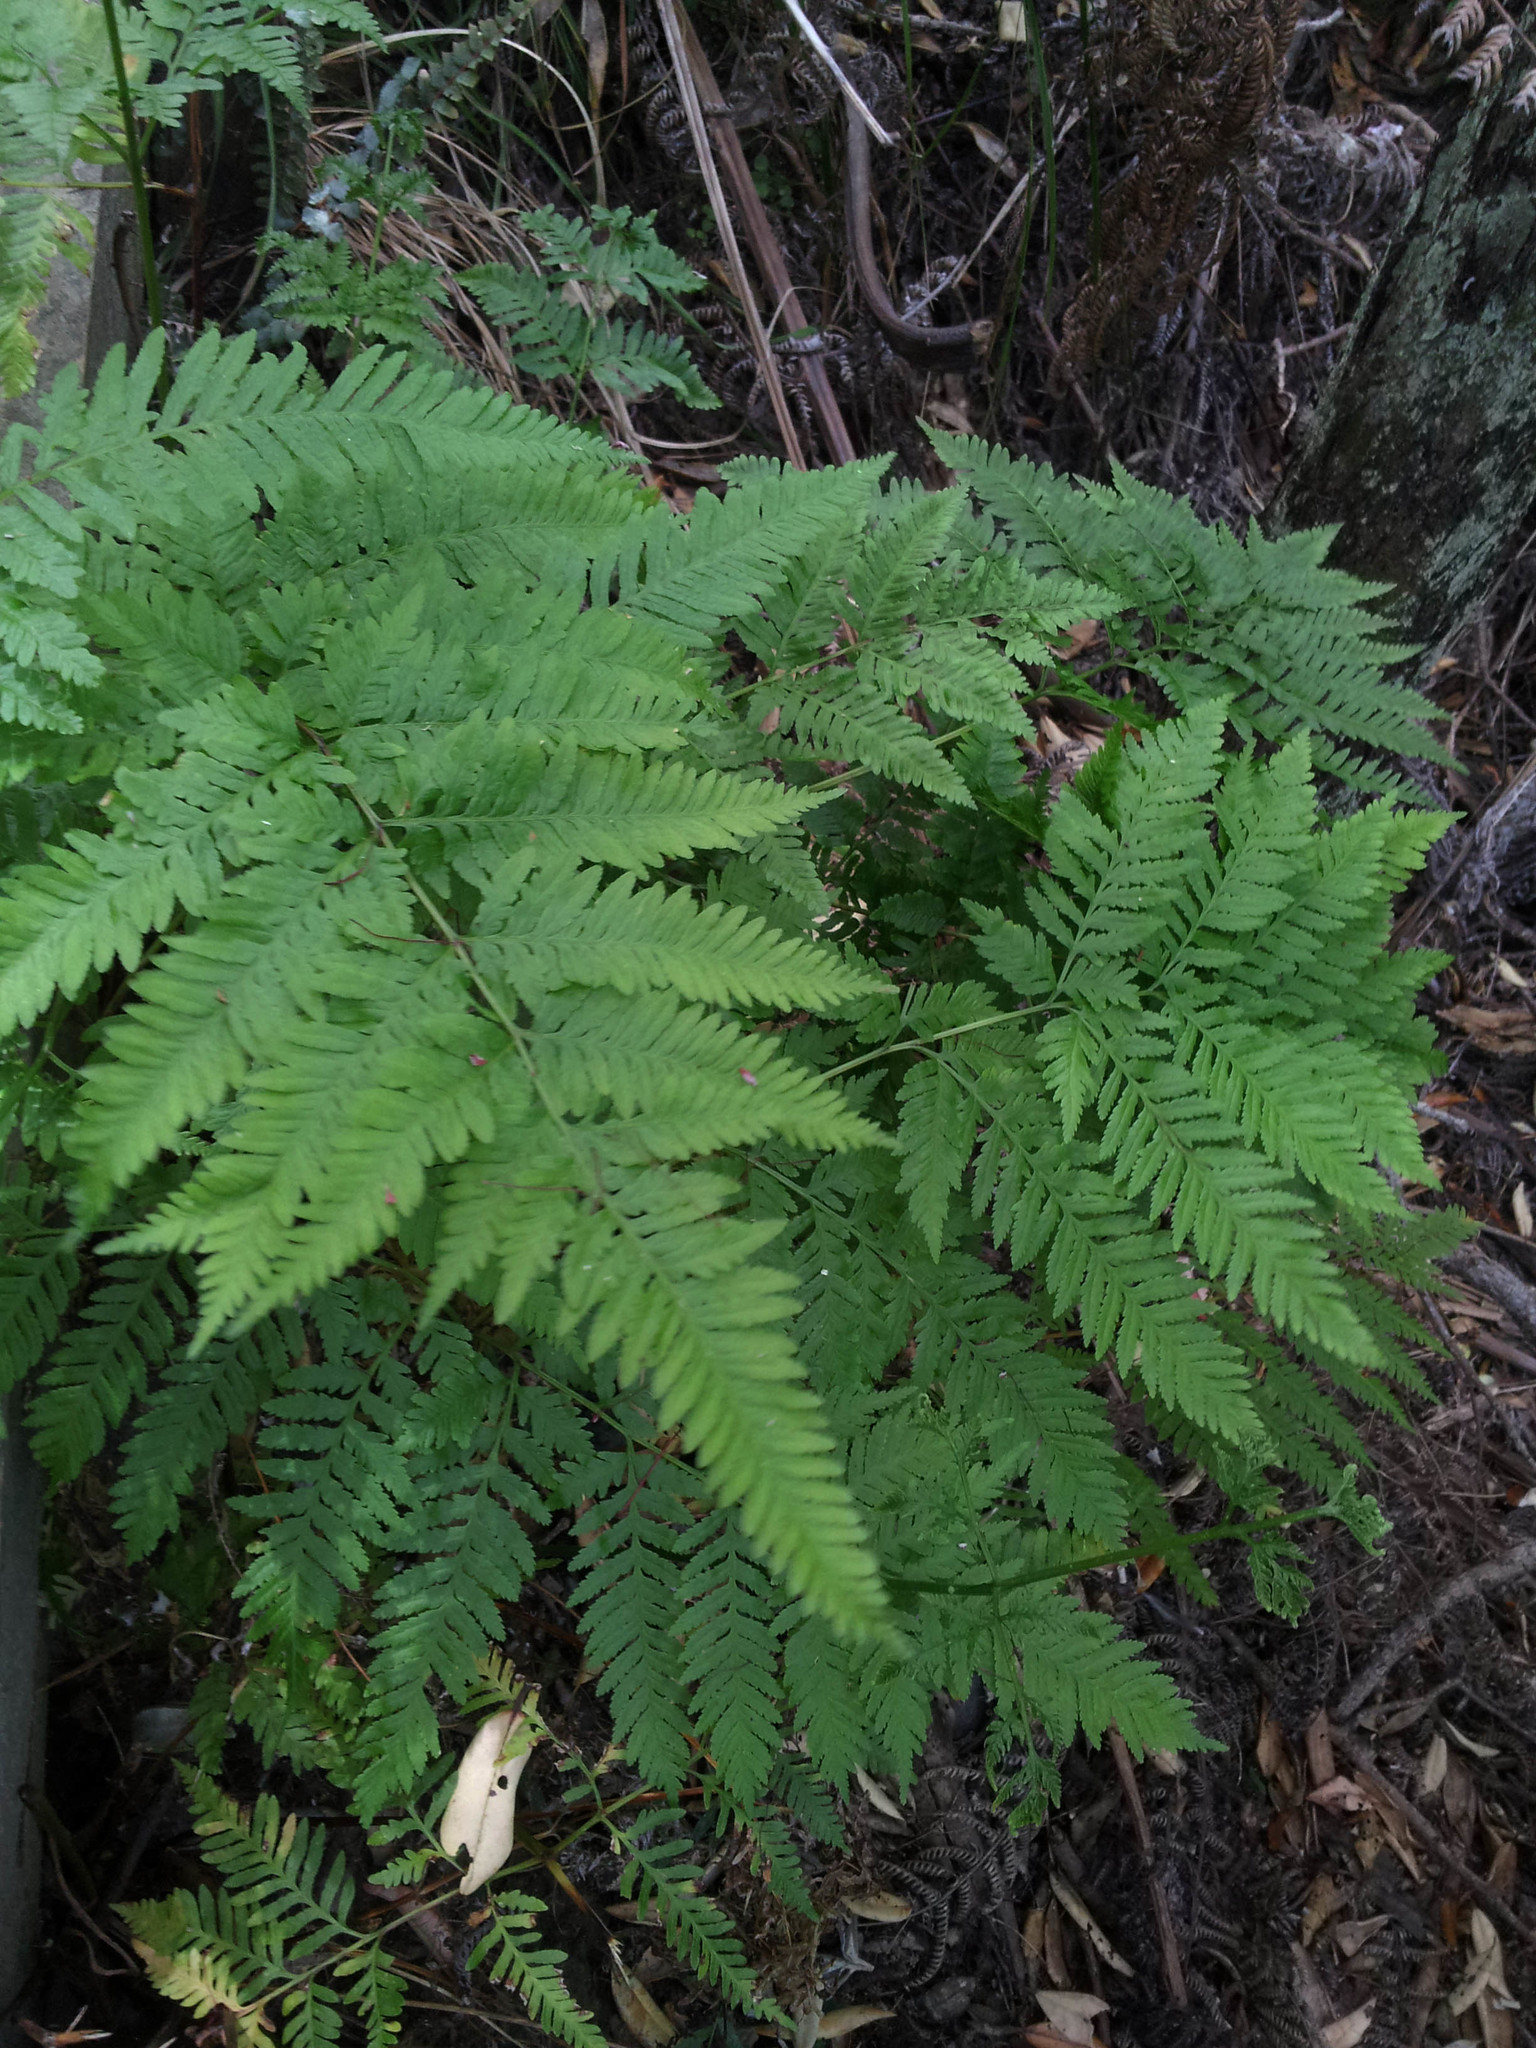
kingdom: Plantae
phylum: Tracheophyta
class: Polypodiopsida
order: Polypodiales
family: Pteridaceae
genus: Pteris
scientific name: Pteris tremula
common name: Australian brake
